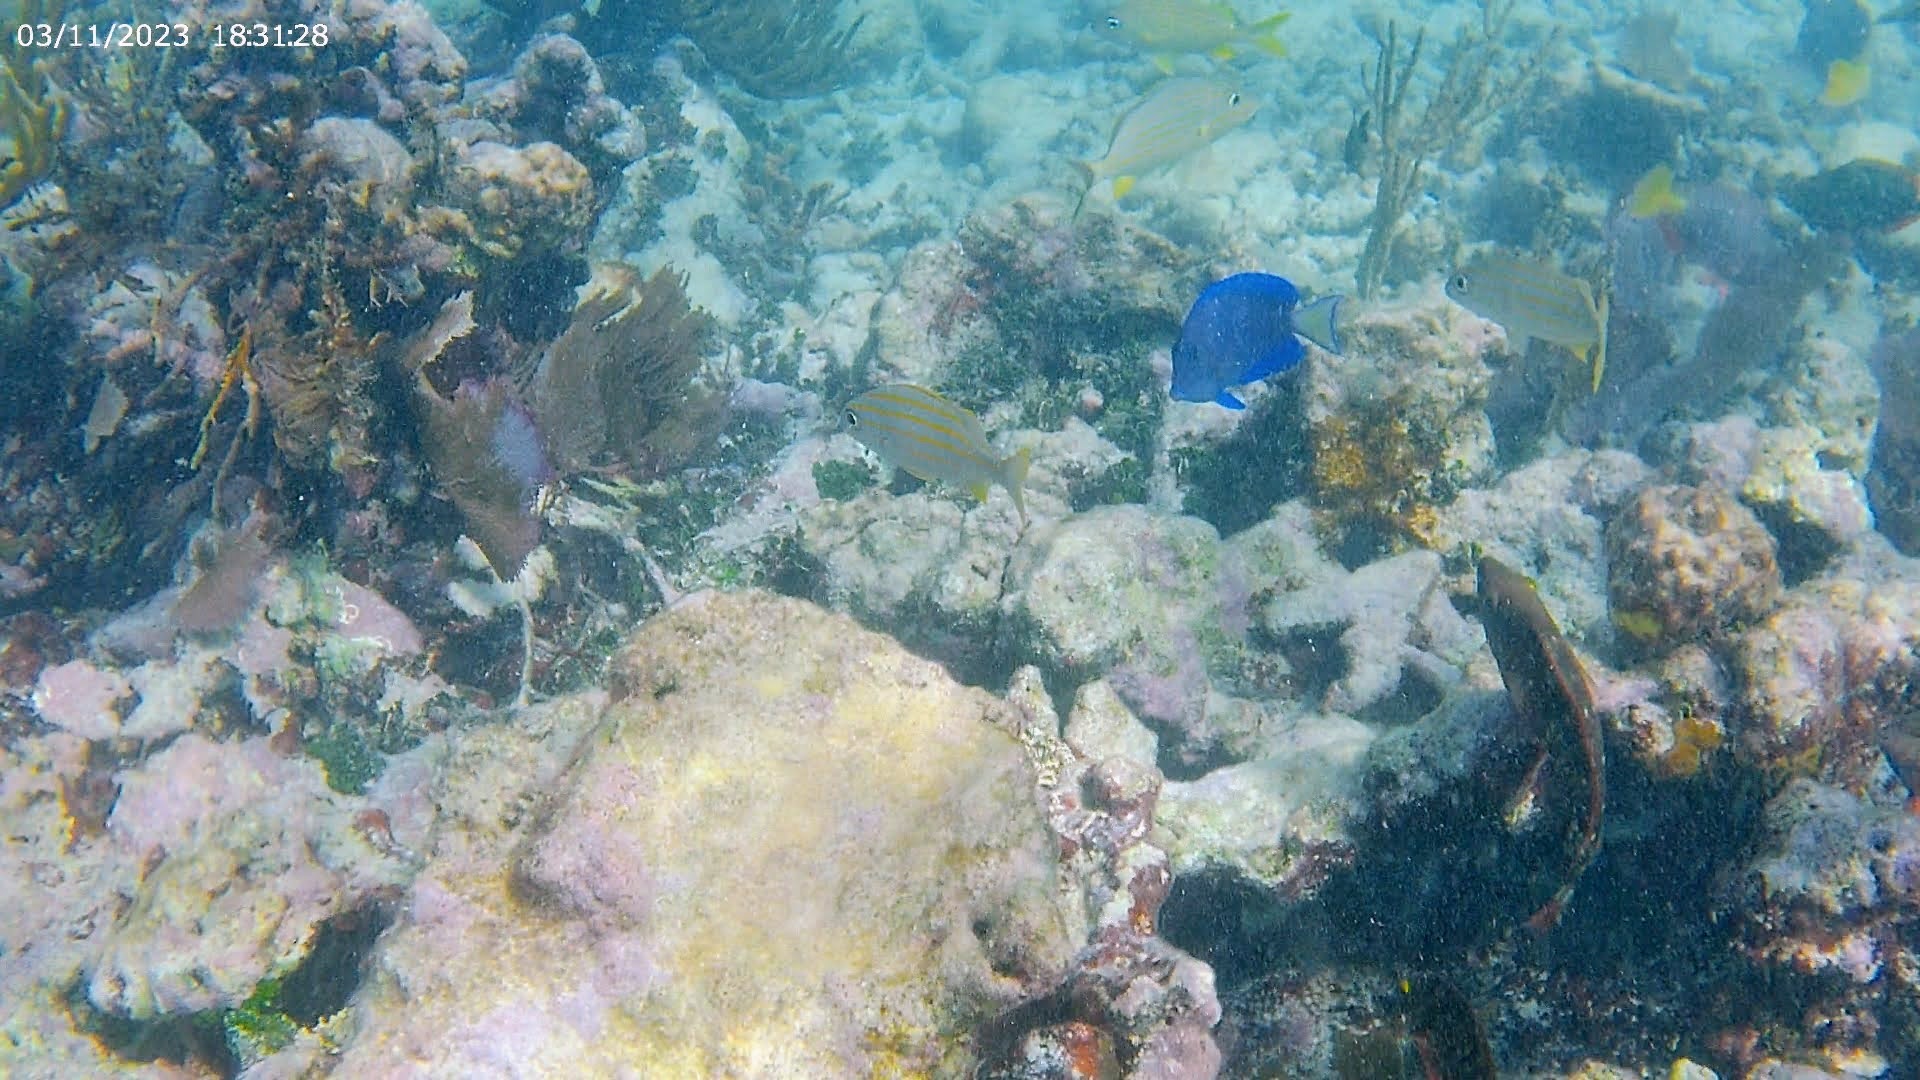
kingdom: Animalia
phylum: Chordata
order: Perciformes
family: Haemulidae
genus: Haemulon
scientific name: Haemulon sciurus
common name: Bluestriped grunt
